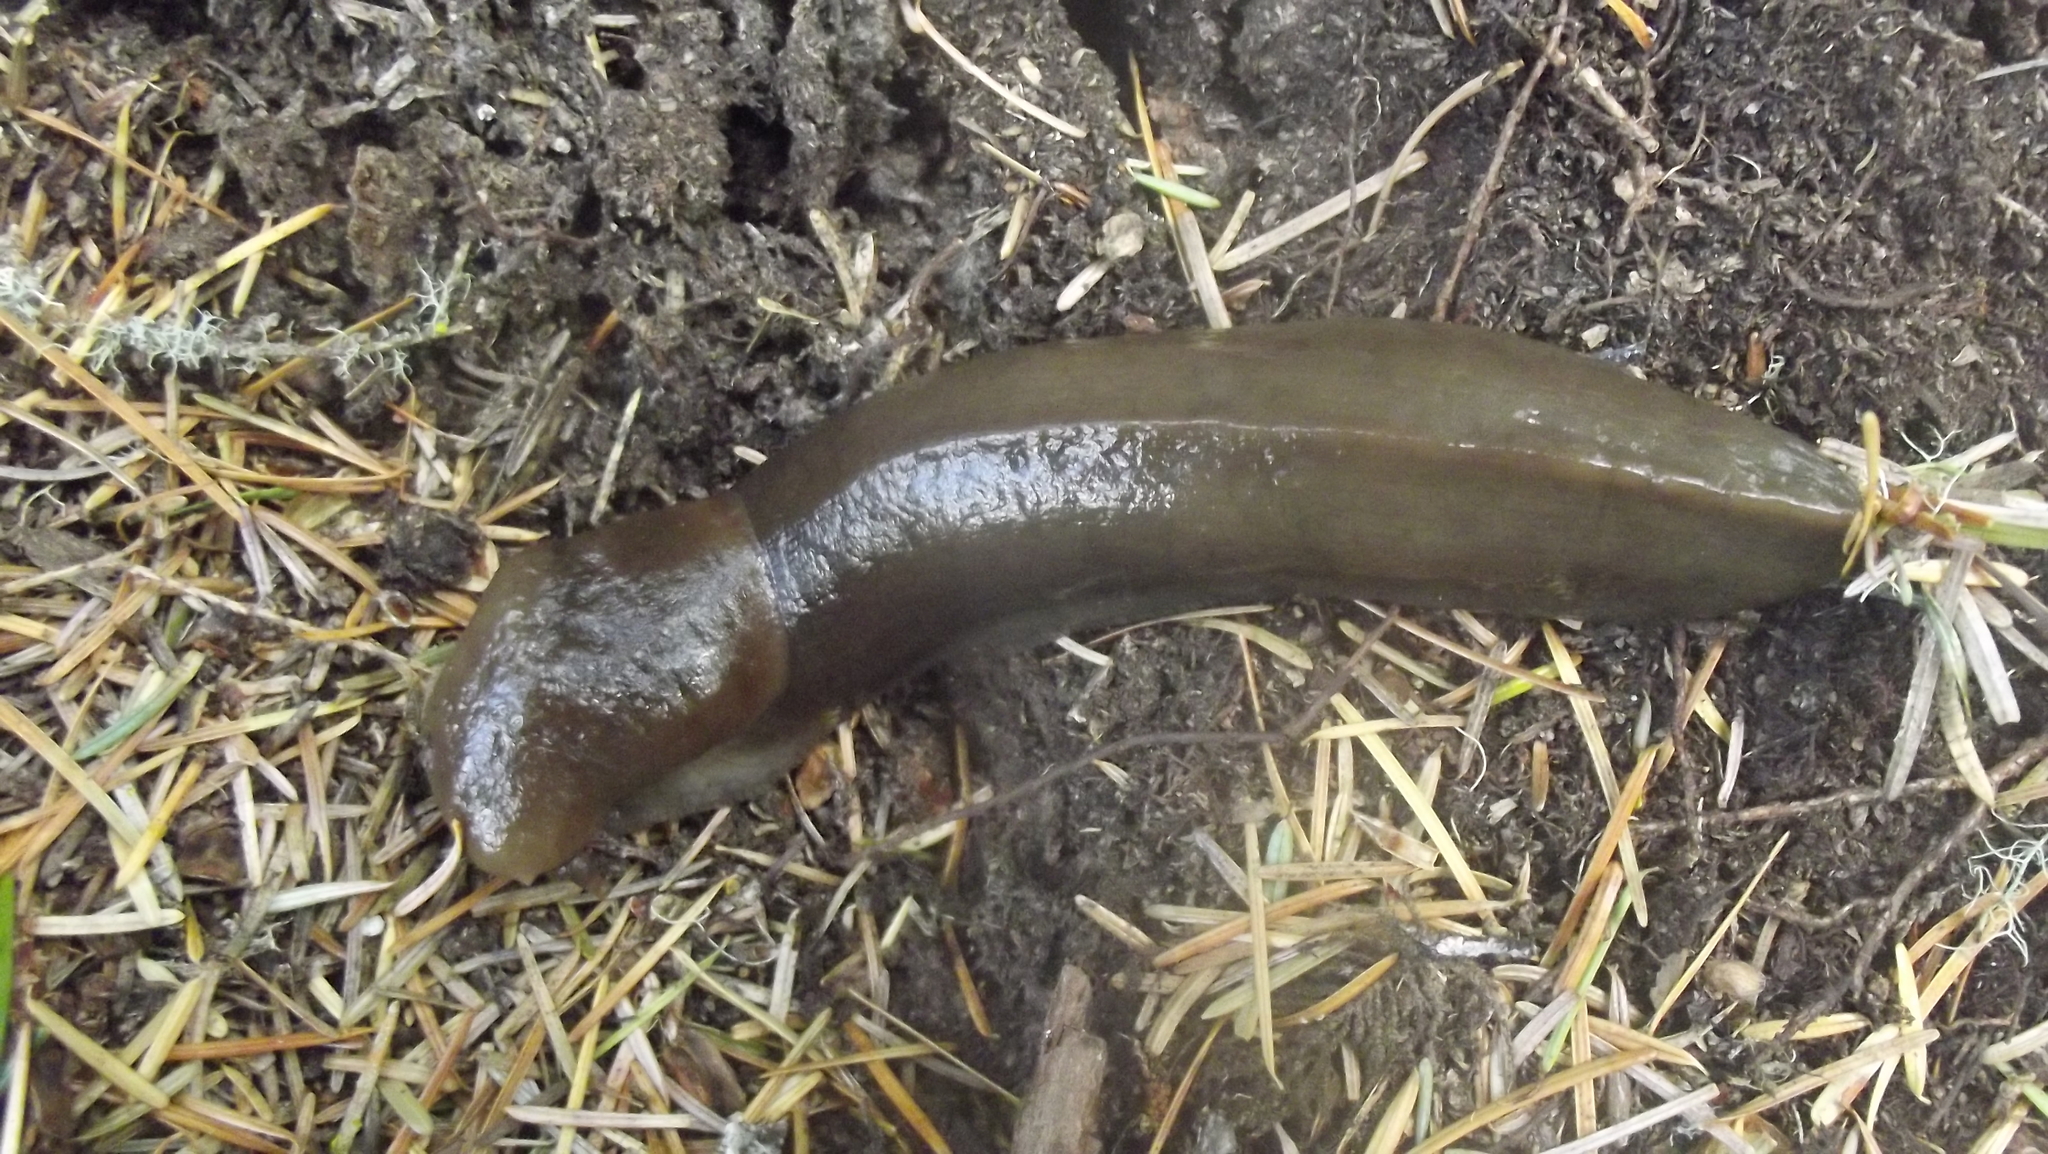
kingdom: Animalia
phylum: Mollusca
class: Gastropoda
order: Stylommatophora
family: Ariolimacidae
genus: Ariolimax
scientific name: Ariolimax columbianus
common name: Pacific banana slug
